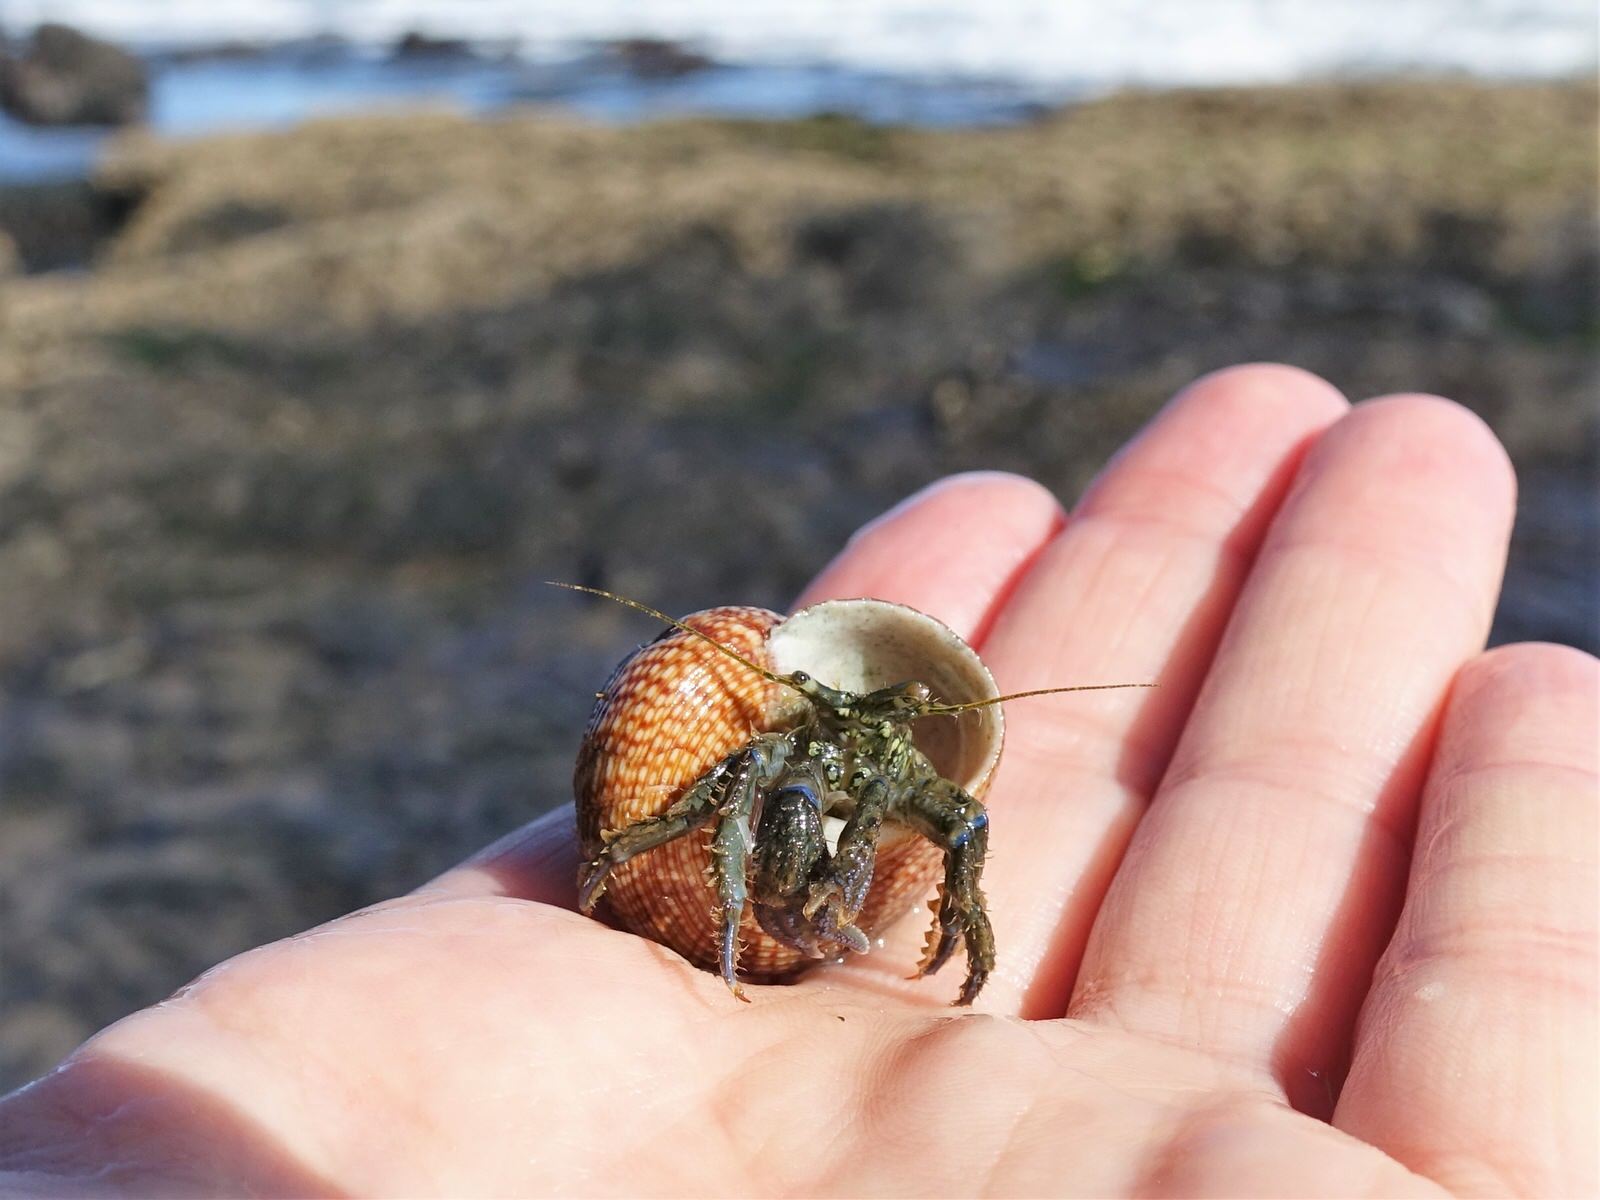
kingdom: Animalia
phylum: Arthropoda
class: Malacostraca
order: Decapoda
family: Paguridae
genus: Pagurus
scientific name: Pagurus novizealandiae
